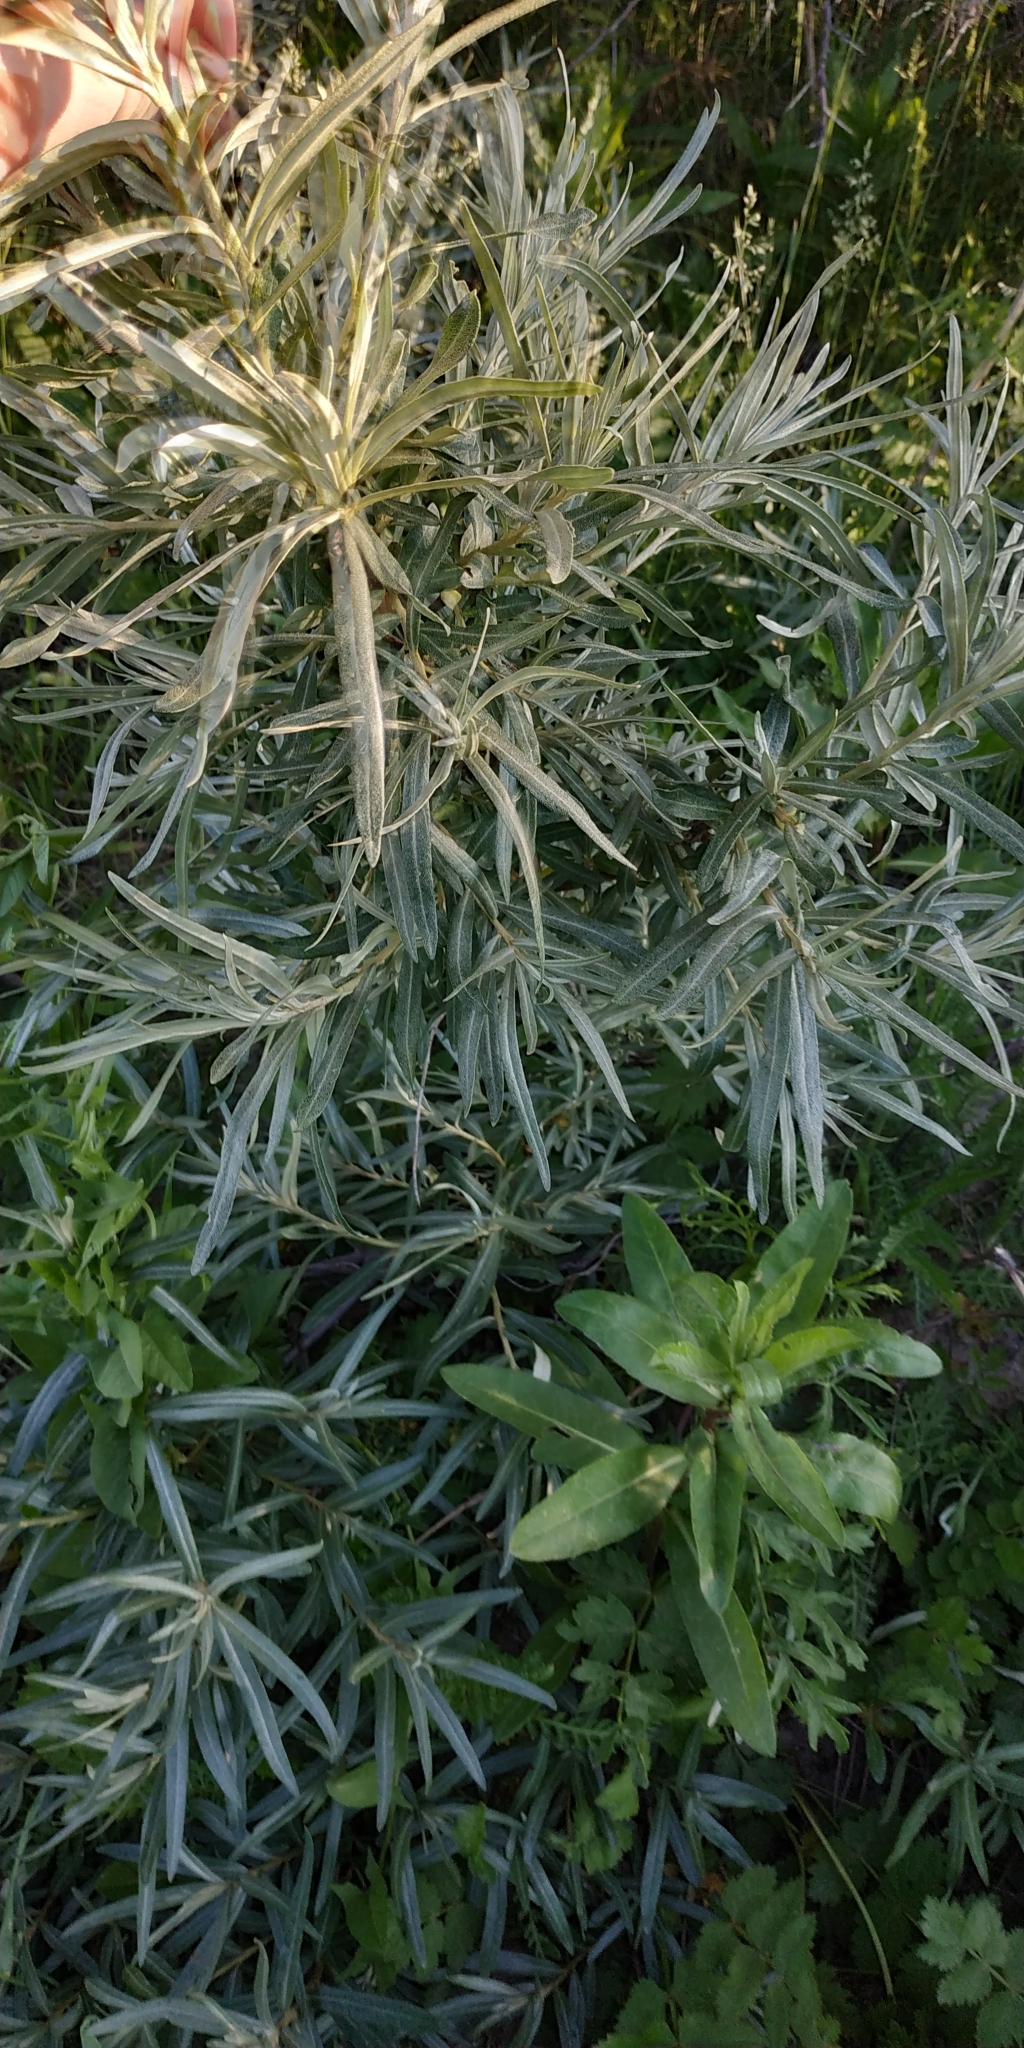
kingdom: Plantae
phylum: Tracheophyta
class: Magnoliopsida
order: Rosales
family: Elaeagnaceae
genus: Hippophae
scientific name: Hippophae rhamnoides
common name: Sea-buckthorn
